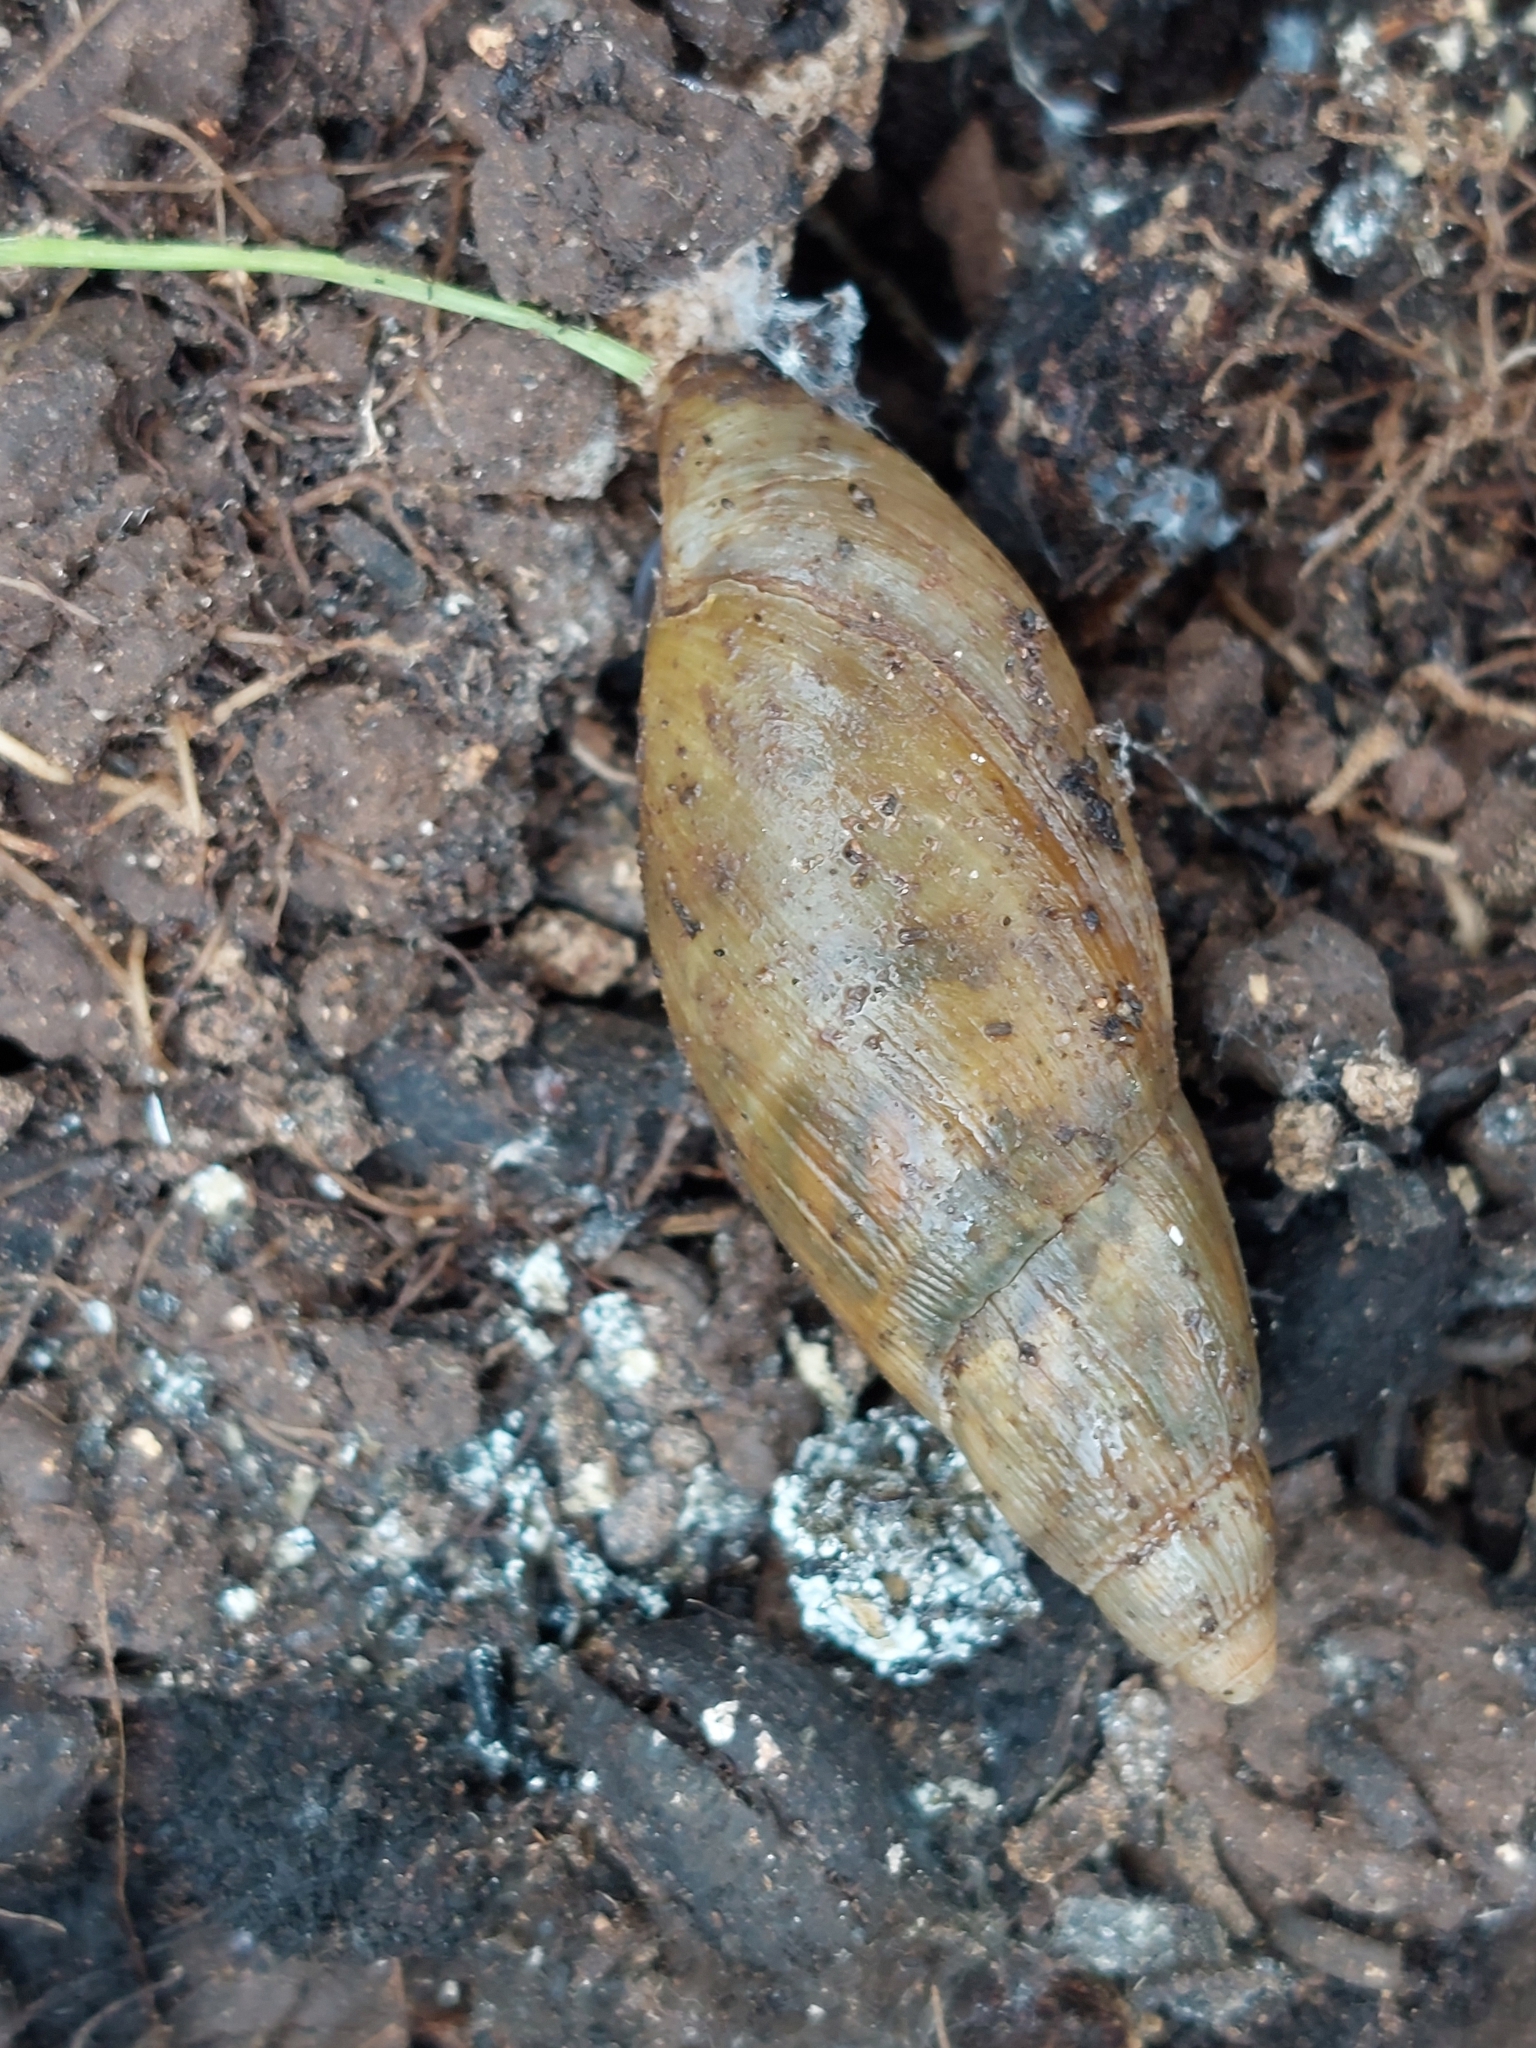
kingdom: Animalia
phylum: Mollusca
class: Gastropoda
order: Stylommatophora
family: Spiraxidae
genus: Poiretia
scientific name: Poiretia dilatata
